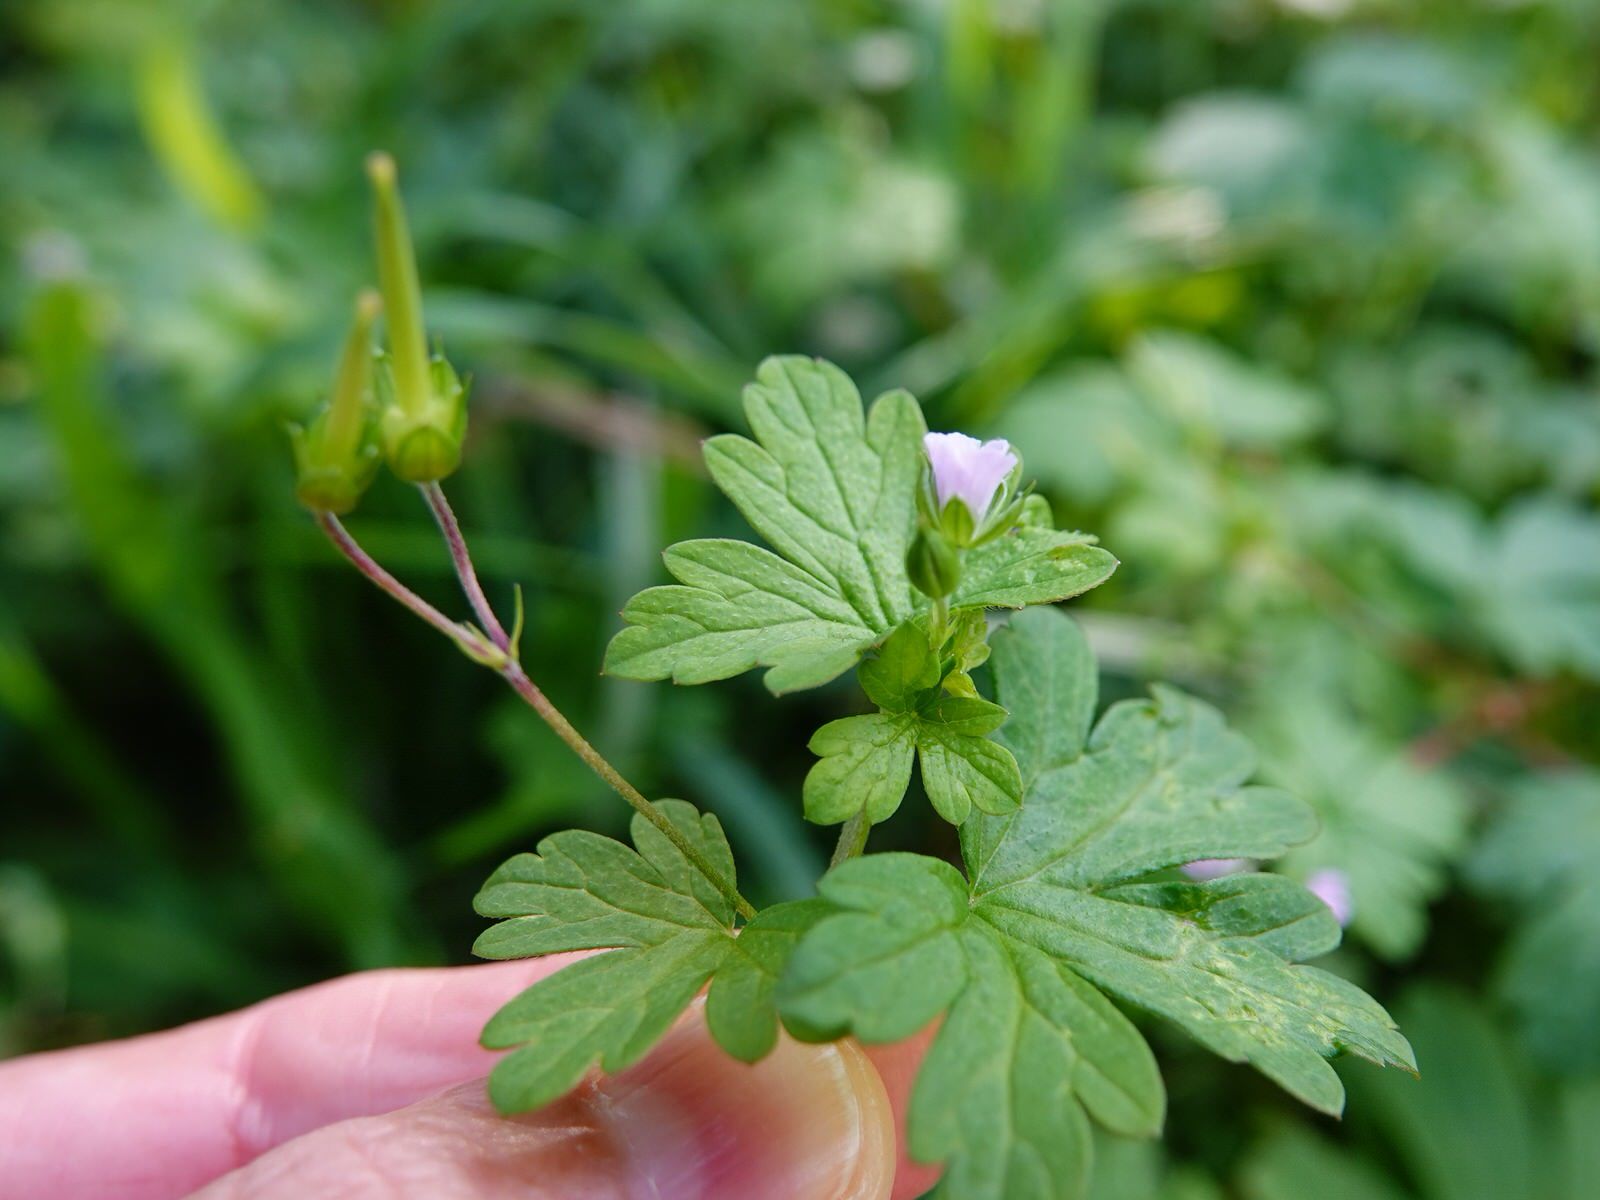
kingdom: Plantae
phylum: Tracheophyta
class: Magnoliopsida
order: Geraniales
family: Geraniaceae
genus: Geranium
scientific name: Geranium homeanum
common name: Australasian geranium
